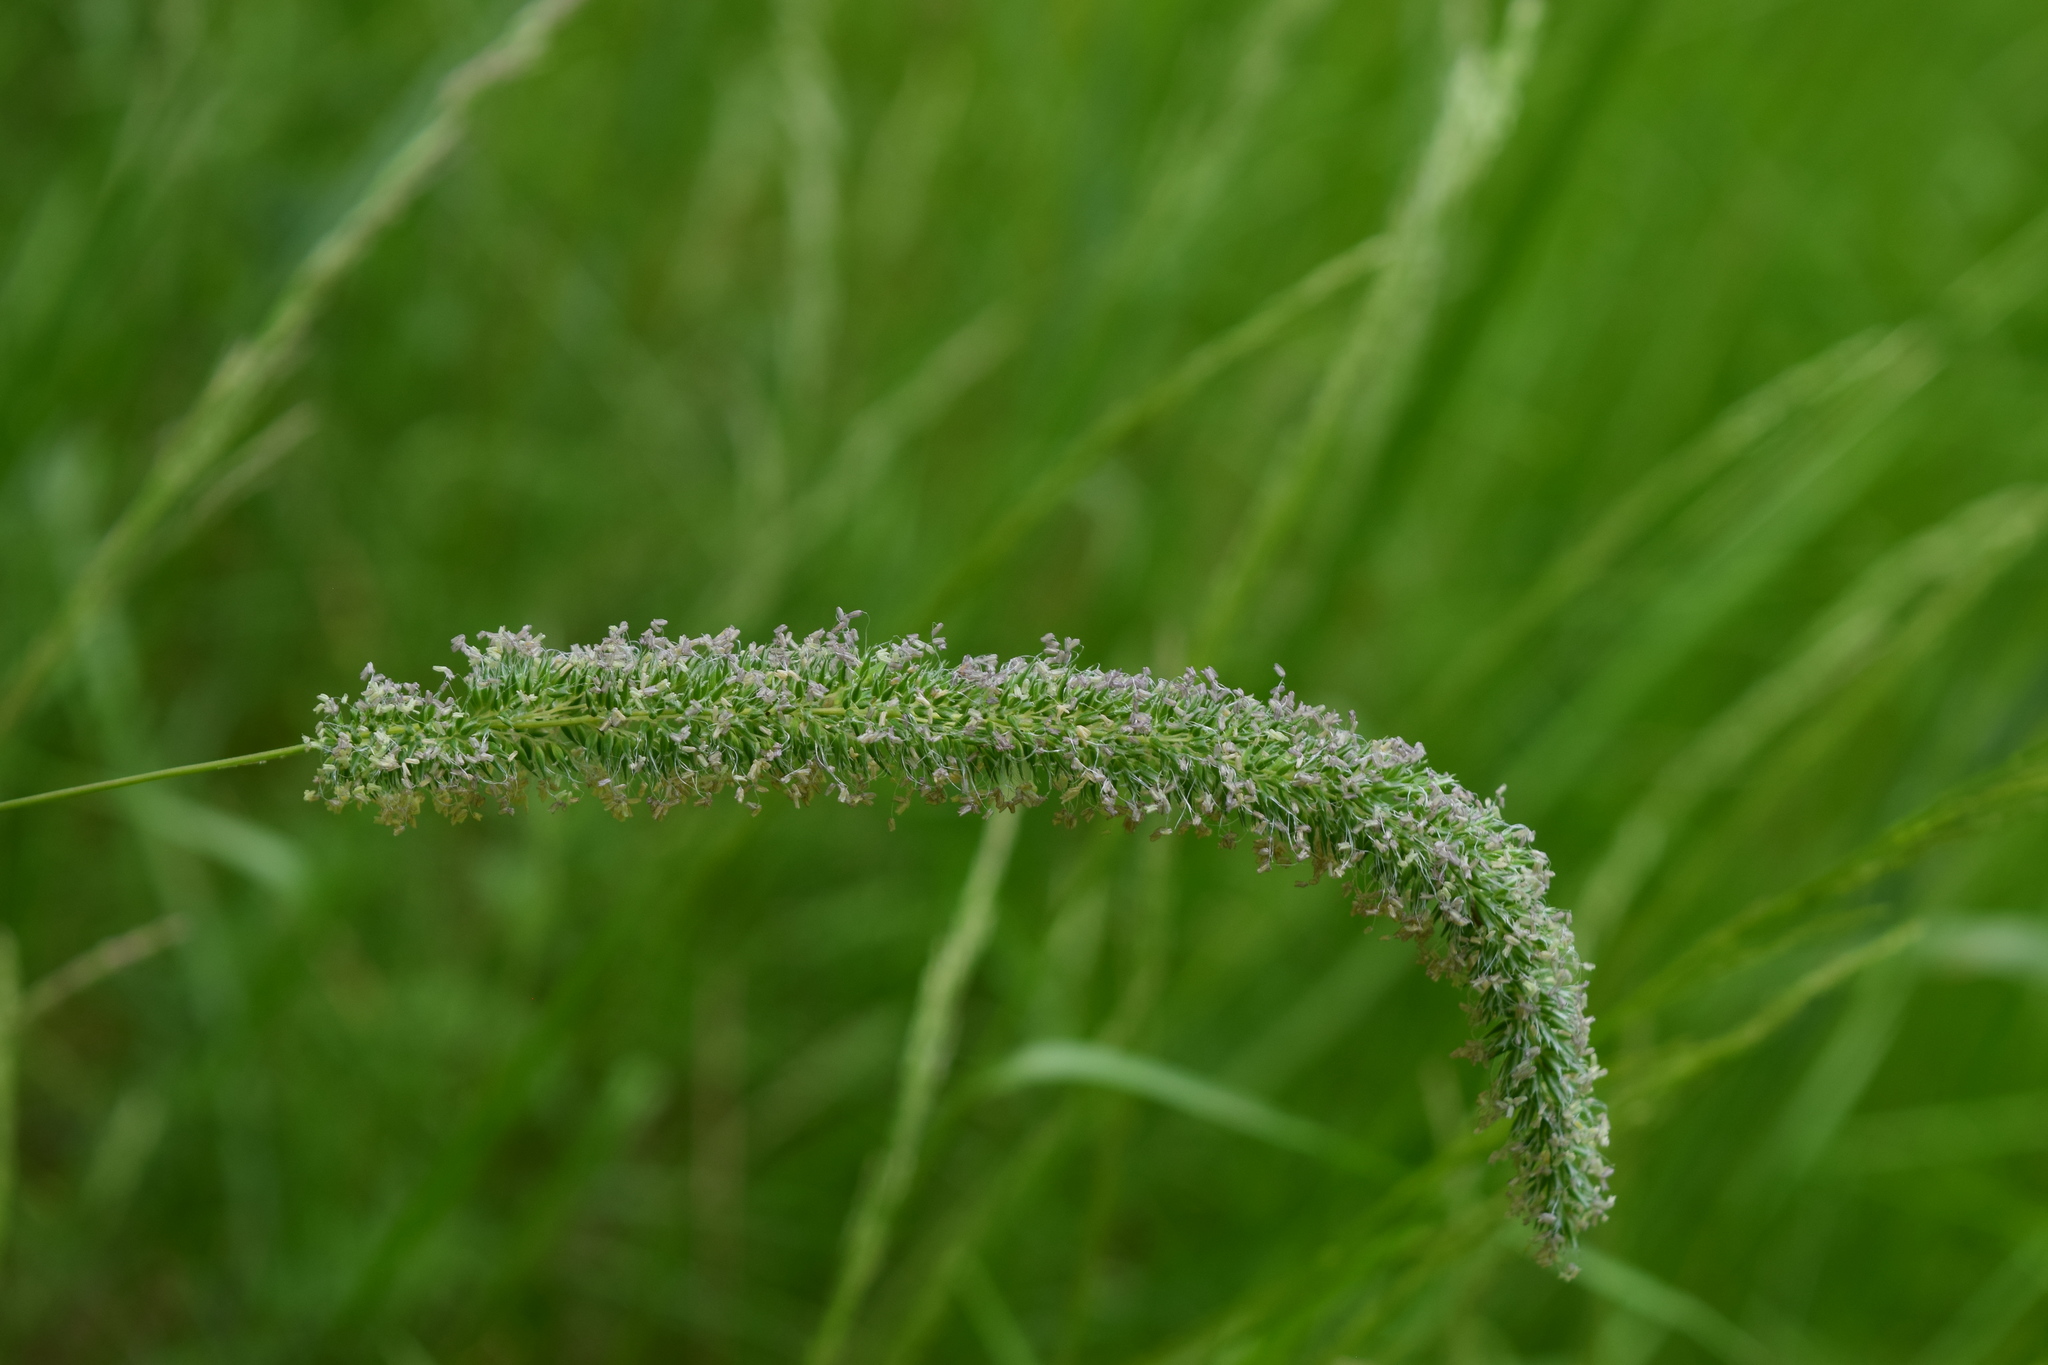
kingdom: Plantae
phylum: Tracheophyta
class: Liliopsida
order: Poales
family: Poaceae
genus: Phleum
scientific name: Phleum pratense
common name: Timothy grass
